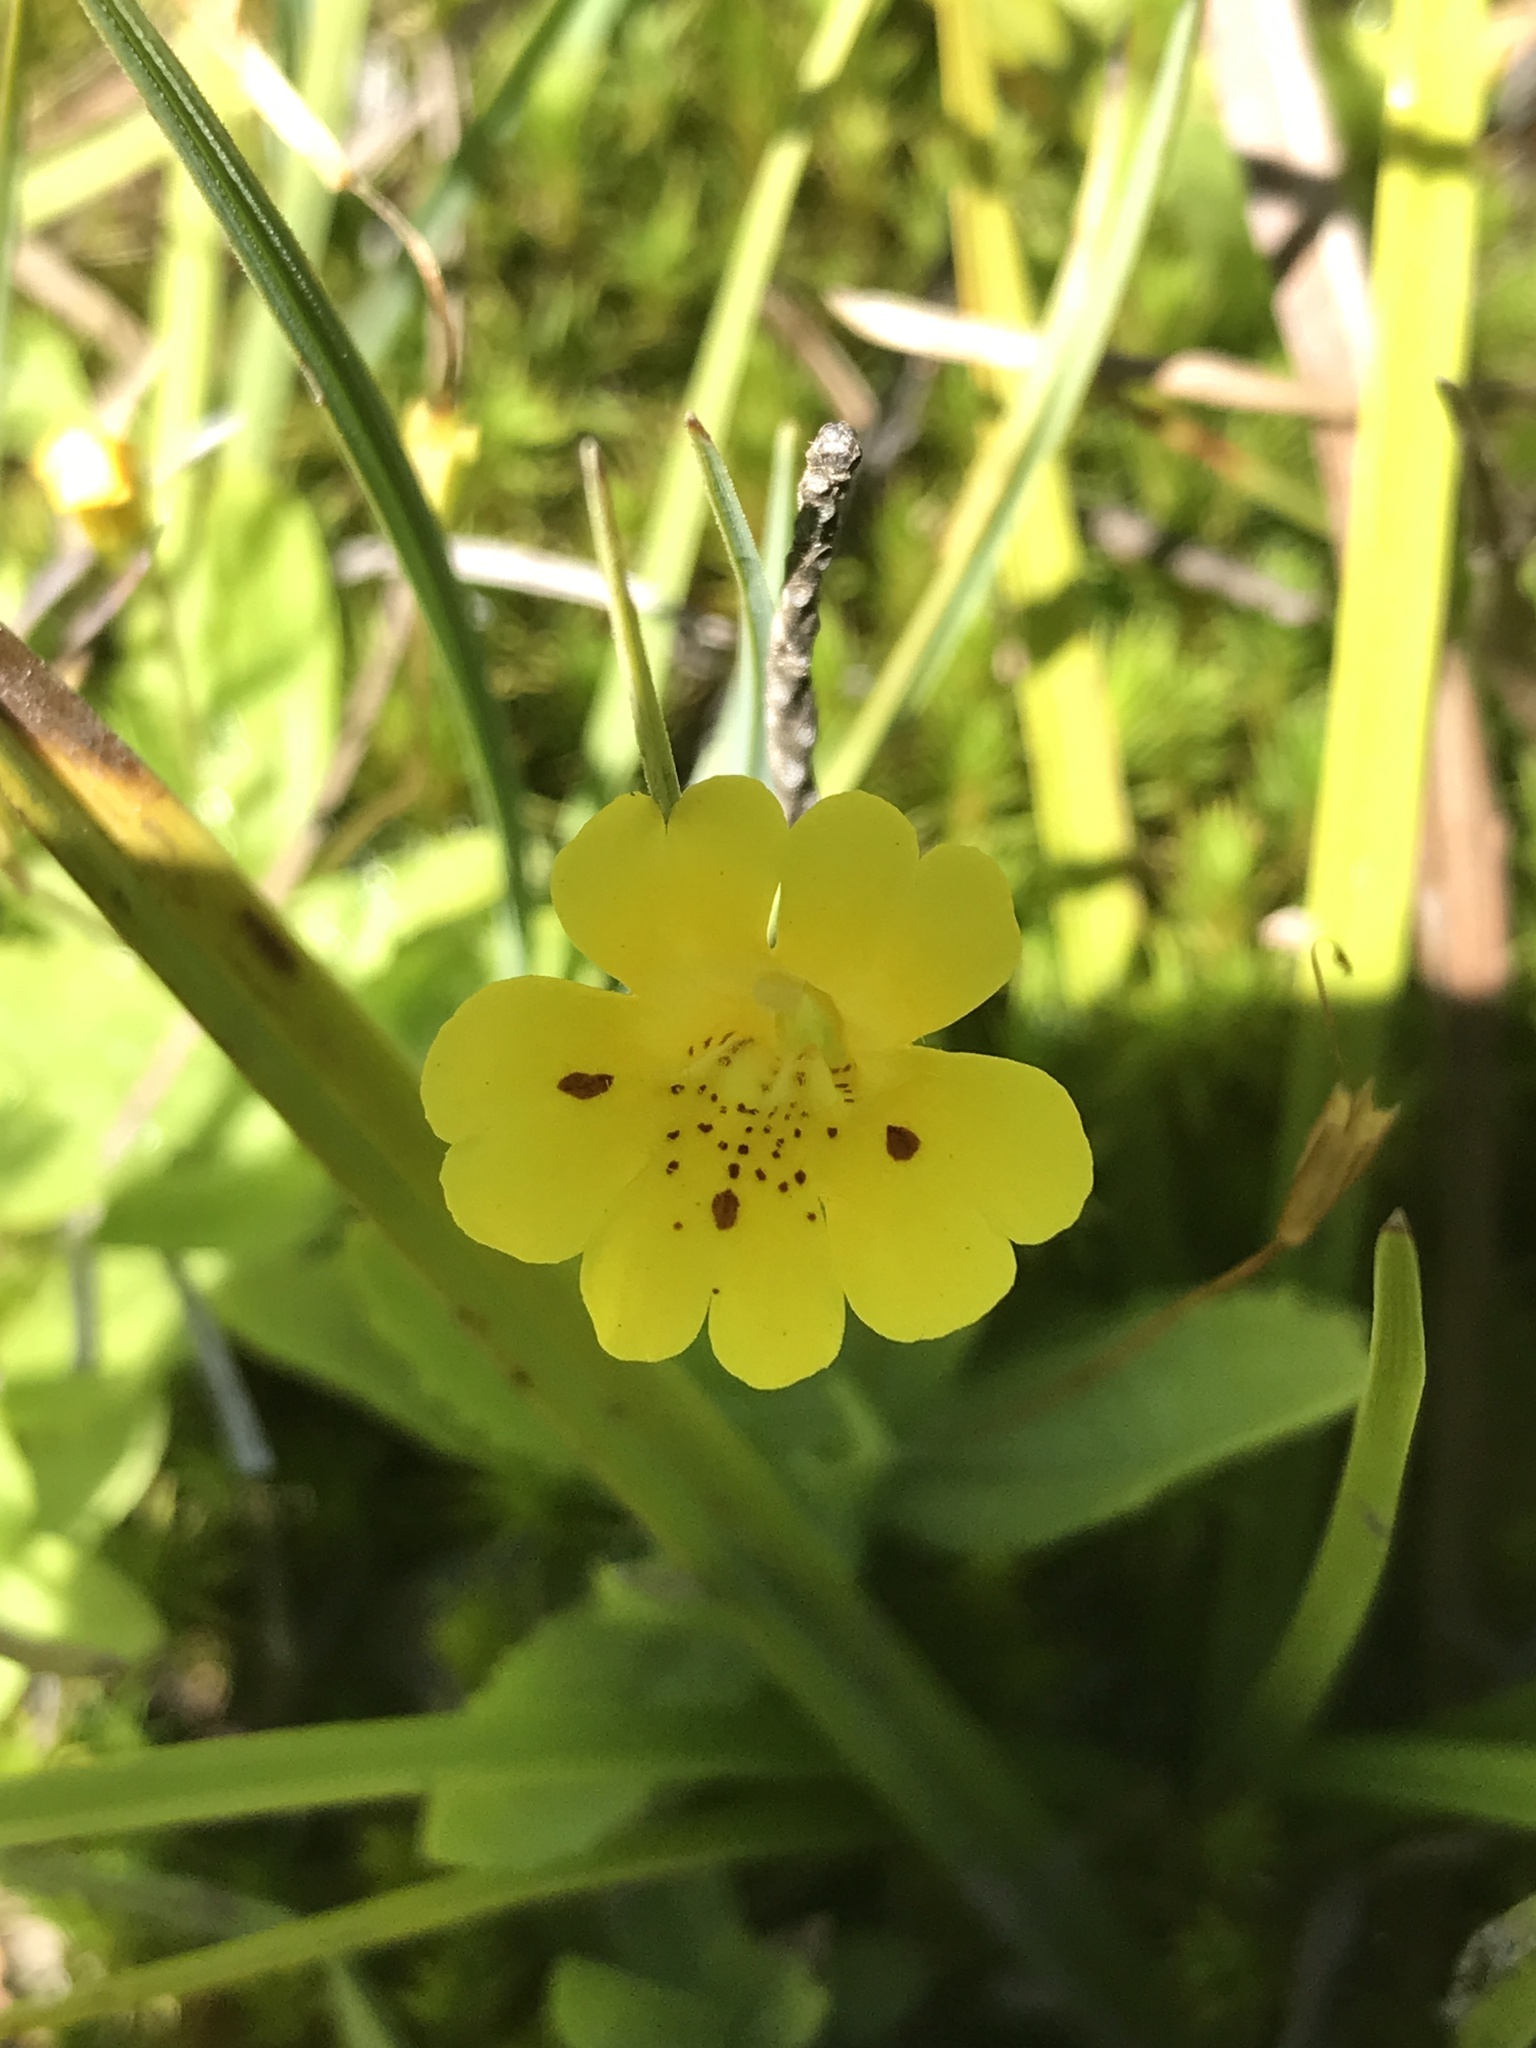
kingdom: Plantae
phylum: Tracheophyta
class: Magnoliopsida
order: Lamiales
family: Phrymaceae
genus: Erythranthe
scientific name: Erythranthe primuloides
